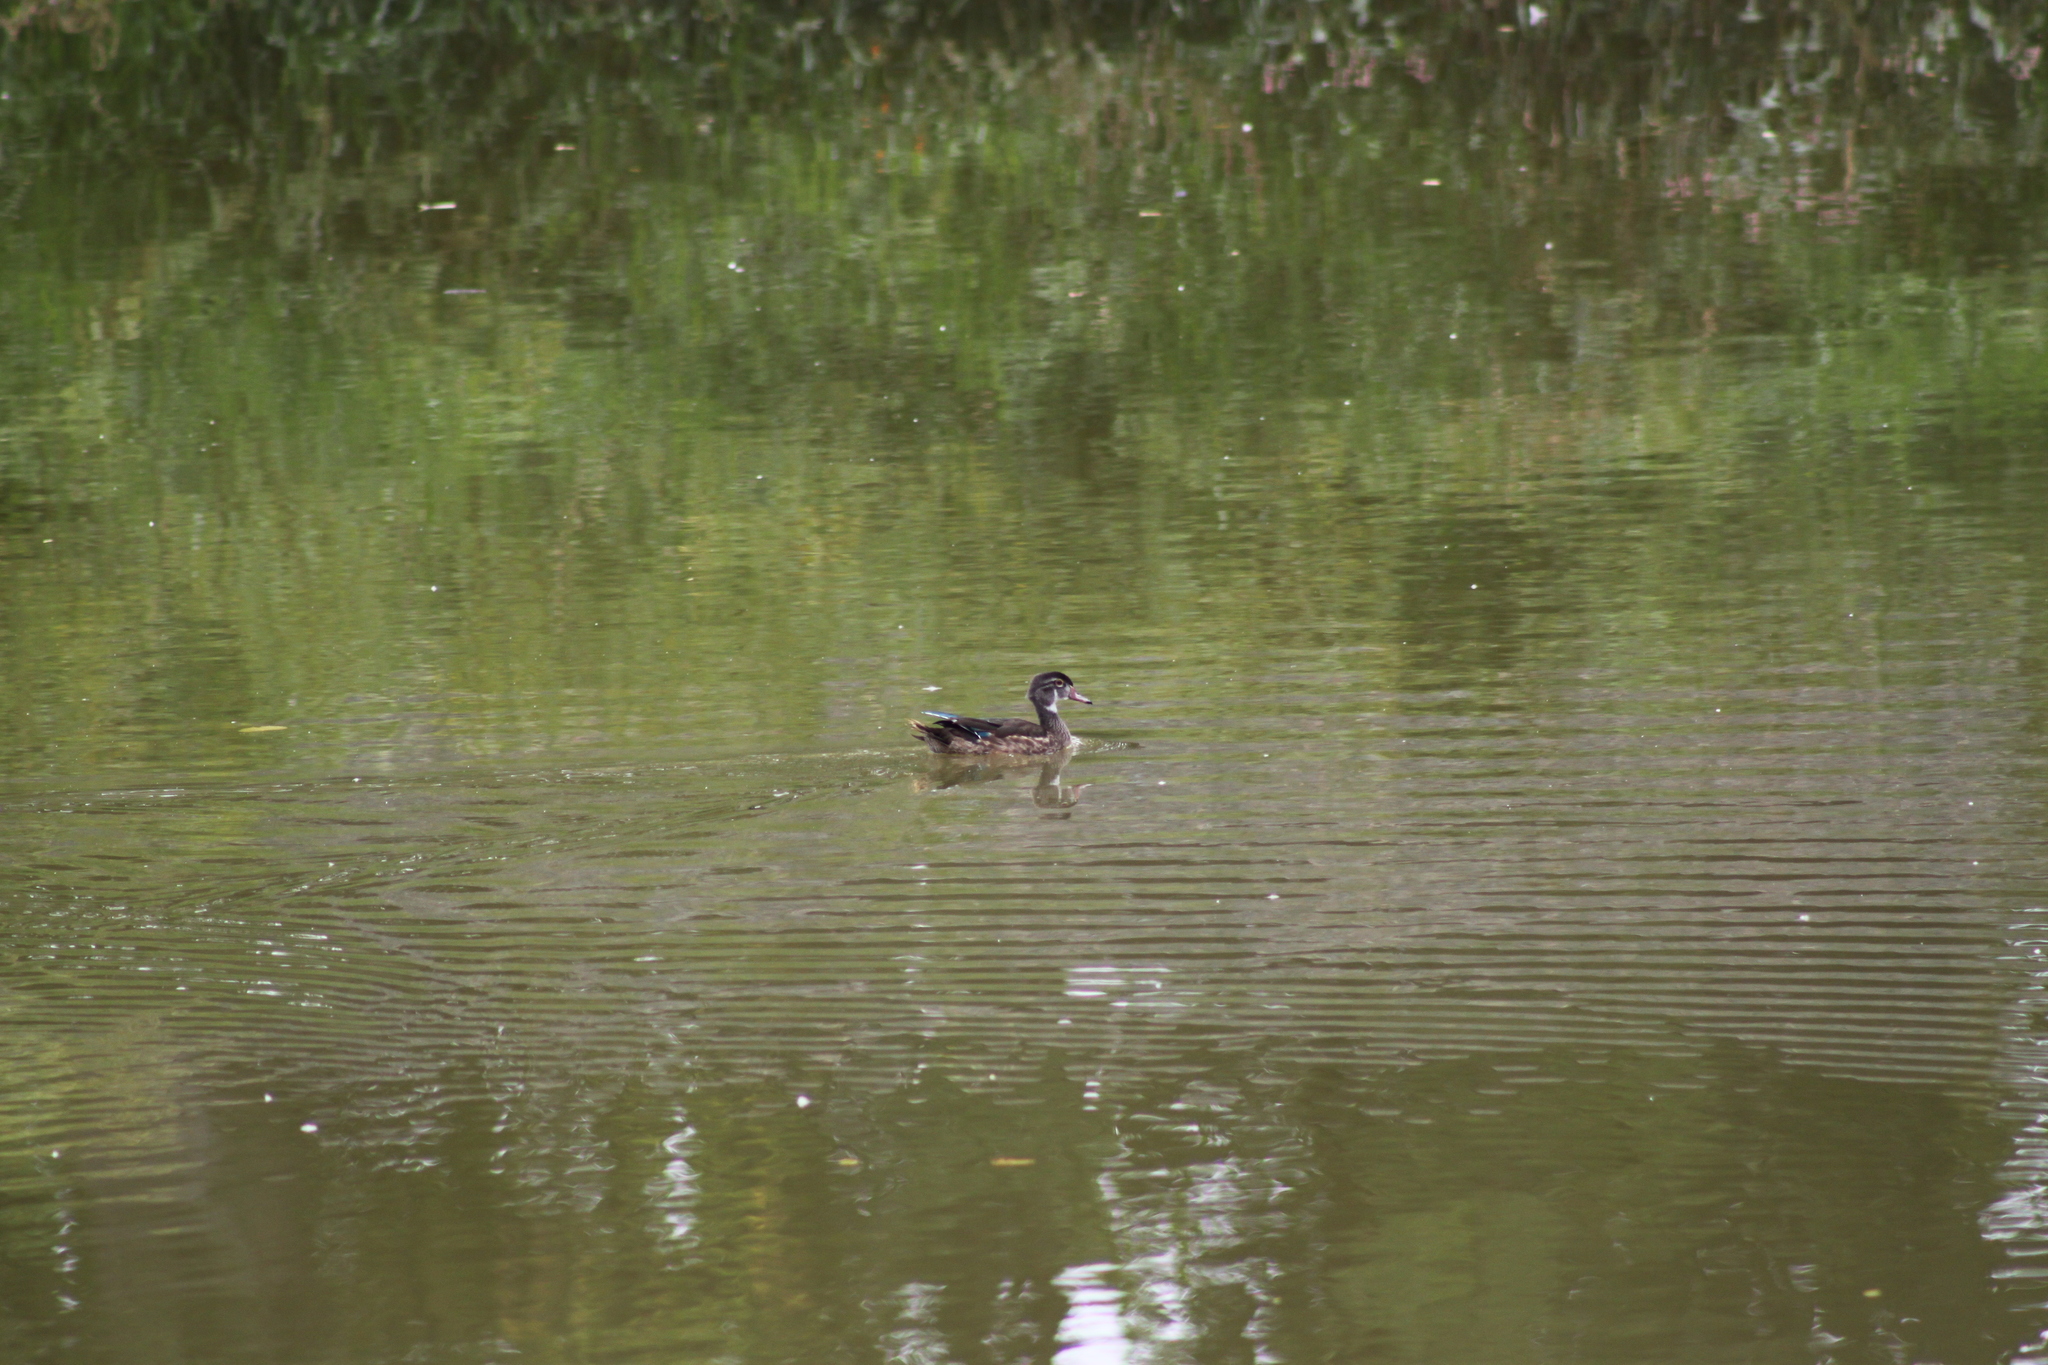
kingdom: Animalia
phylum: Chordata
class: Aves
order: Anseriformes
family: Anatidae
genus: Aix
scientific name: Aix sponsa
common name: Wood duck
